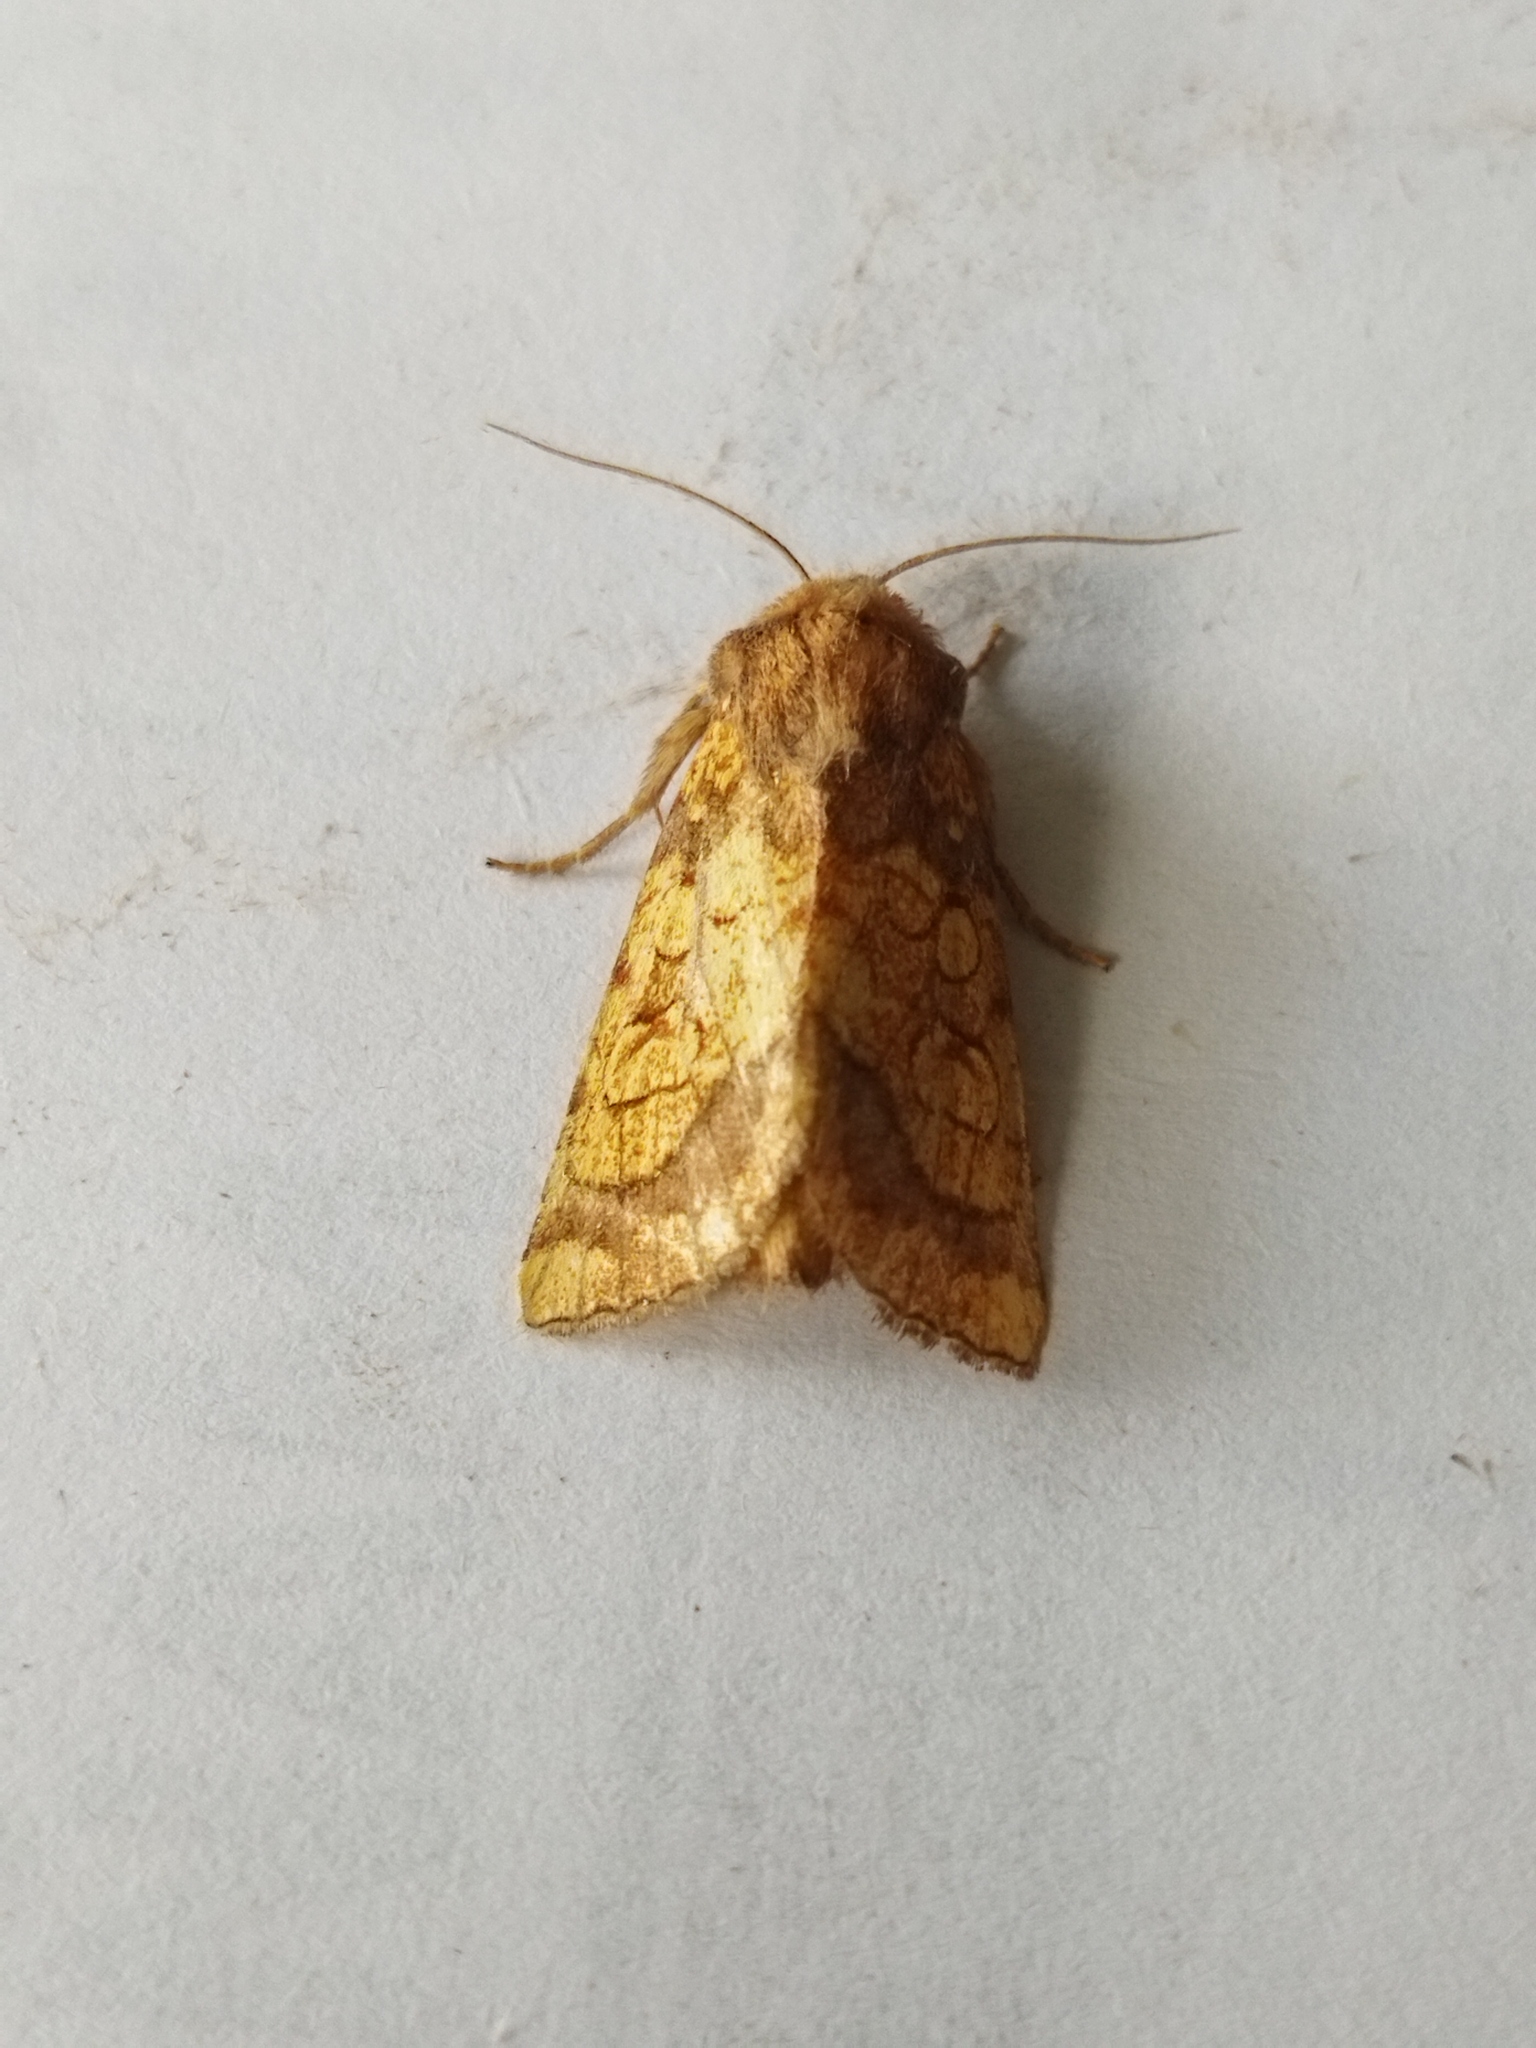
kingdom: Animalia
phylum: Arthropoda
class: Insecta
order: Lepidoptera
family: Noctuidae
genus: Gortyna
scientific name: Gortyna flavago
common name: Frosted orange
